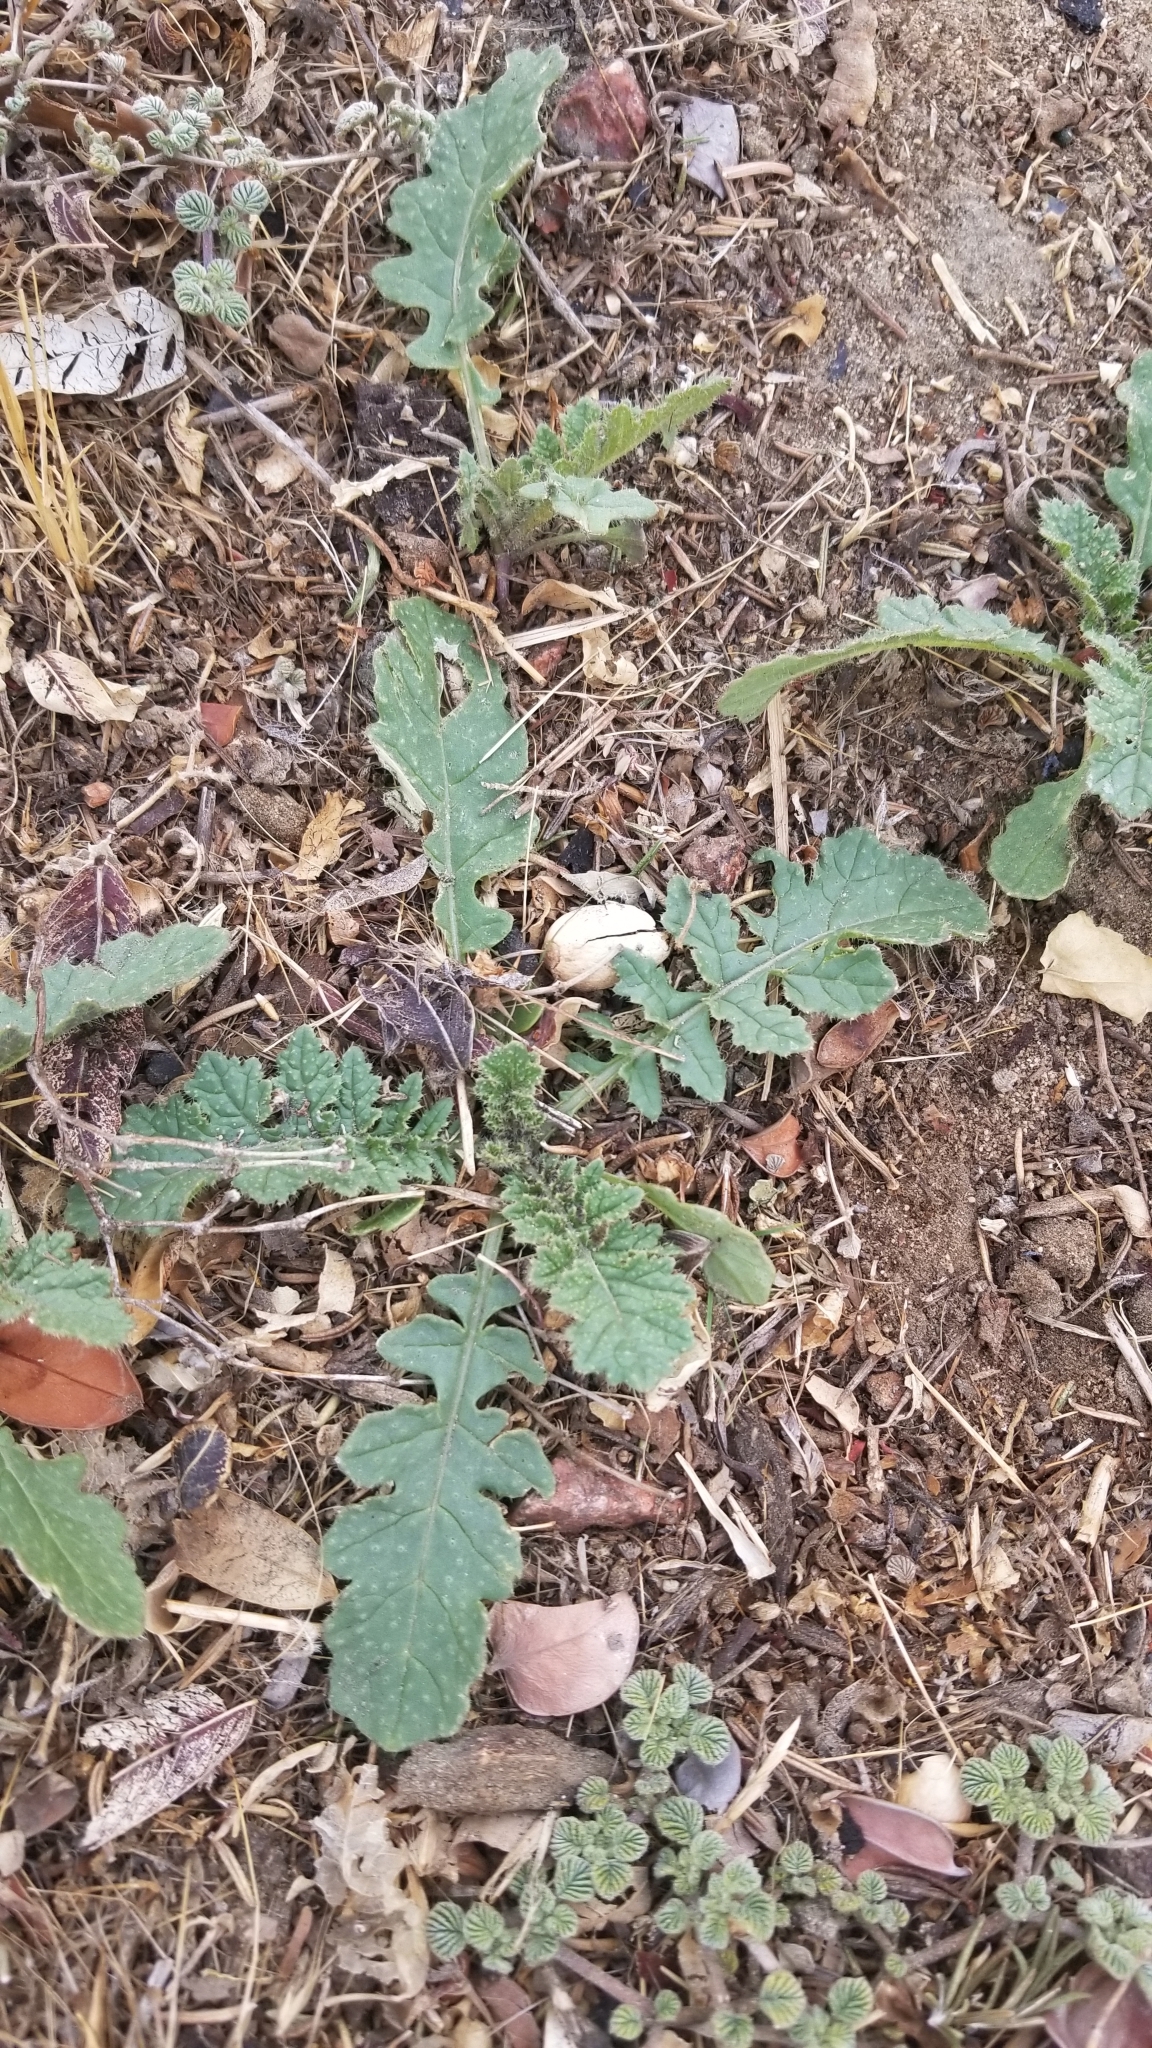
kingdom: Plantae
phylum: Tracheophyta
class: Magnoliopsida
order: Brassicales
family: Brassicaceae
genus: Brassica
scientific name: Brassica tournefortii
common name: Pale cabbage
